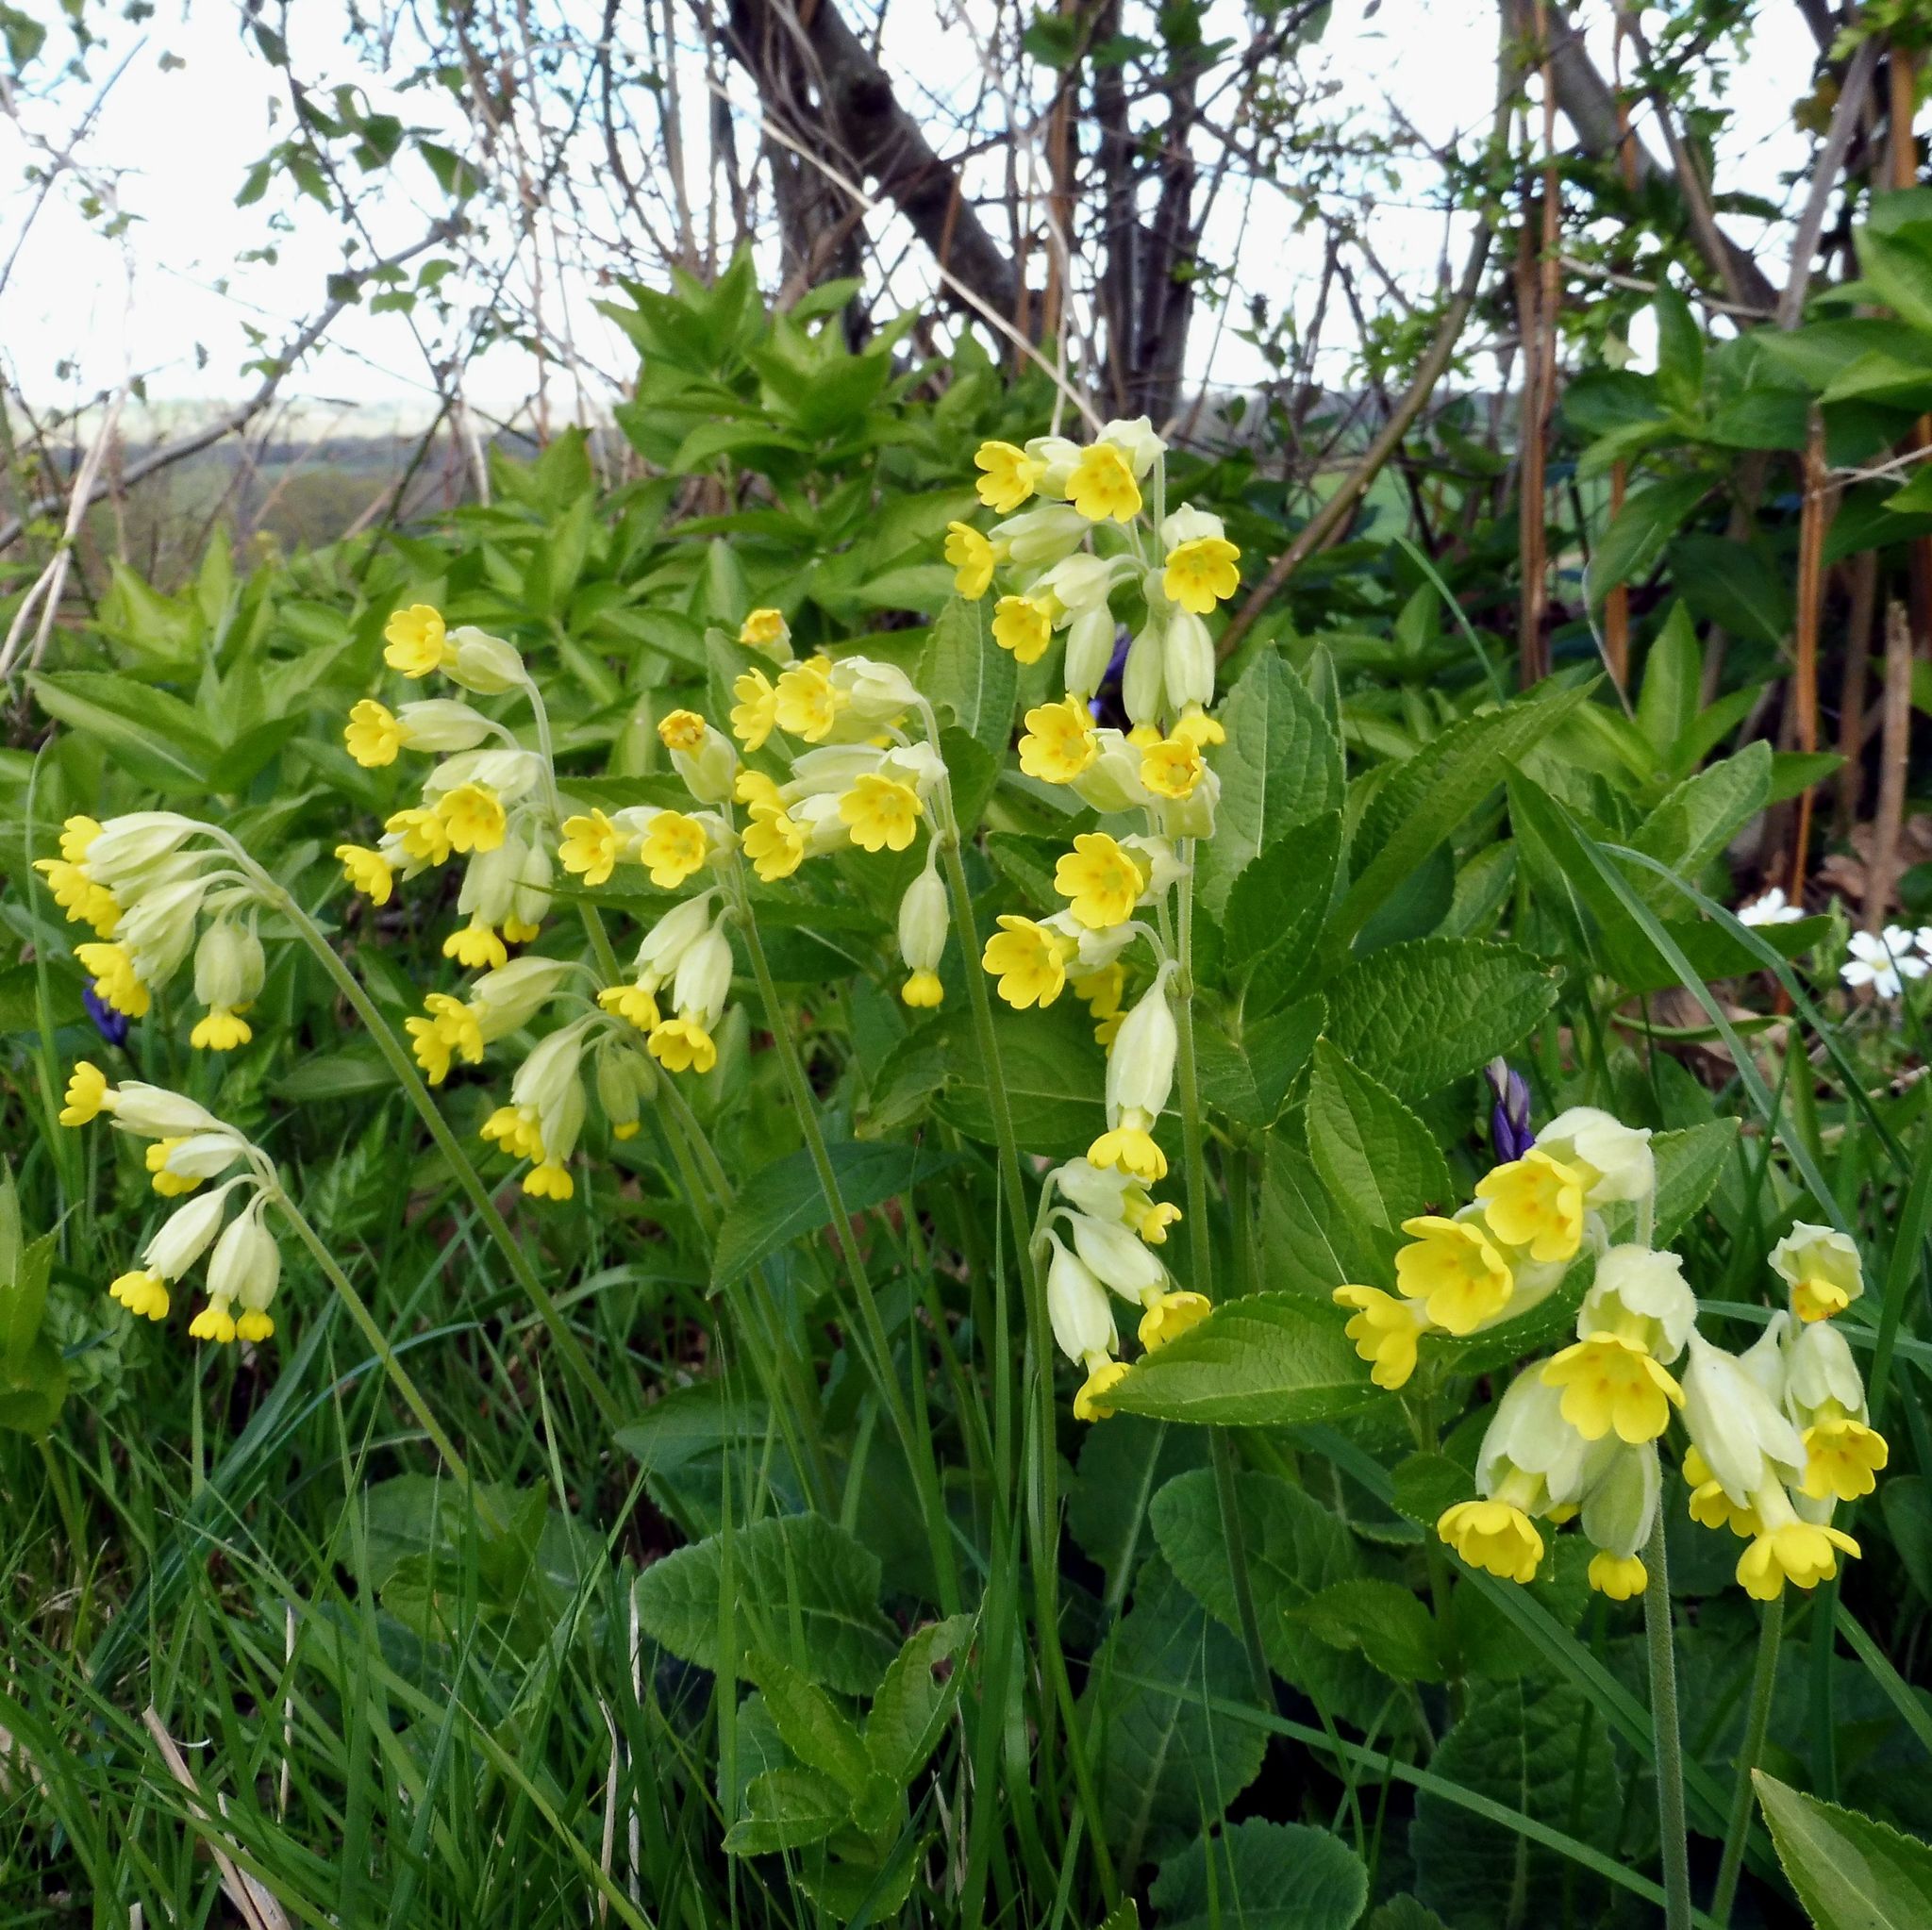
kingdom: Plantae
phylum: Tracheophyta
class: Magnoliopsida
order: Ericales
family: Primulaceae
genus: Primula
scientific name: Primula veris
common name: Cowslip
